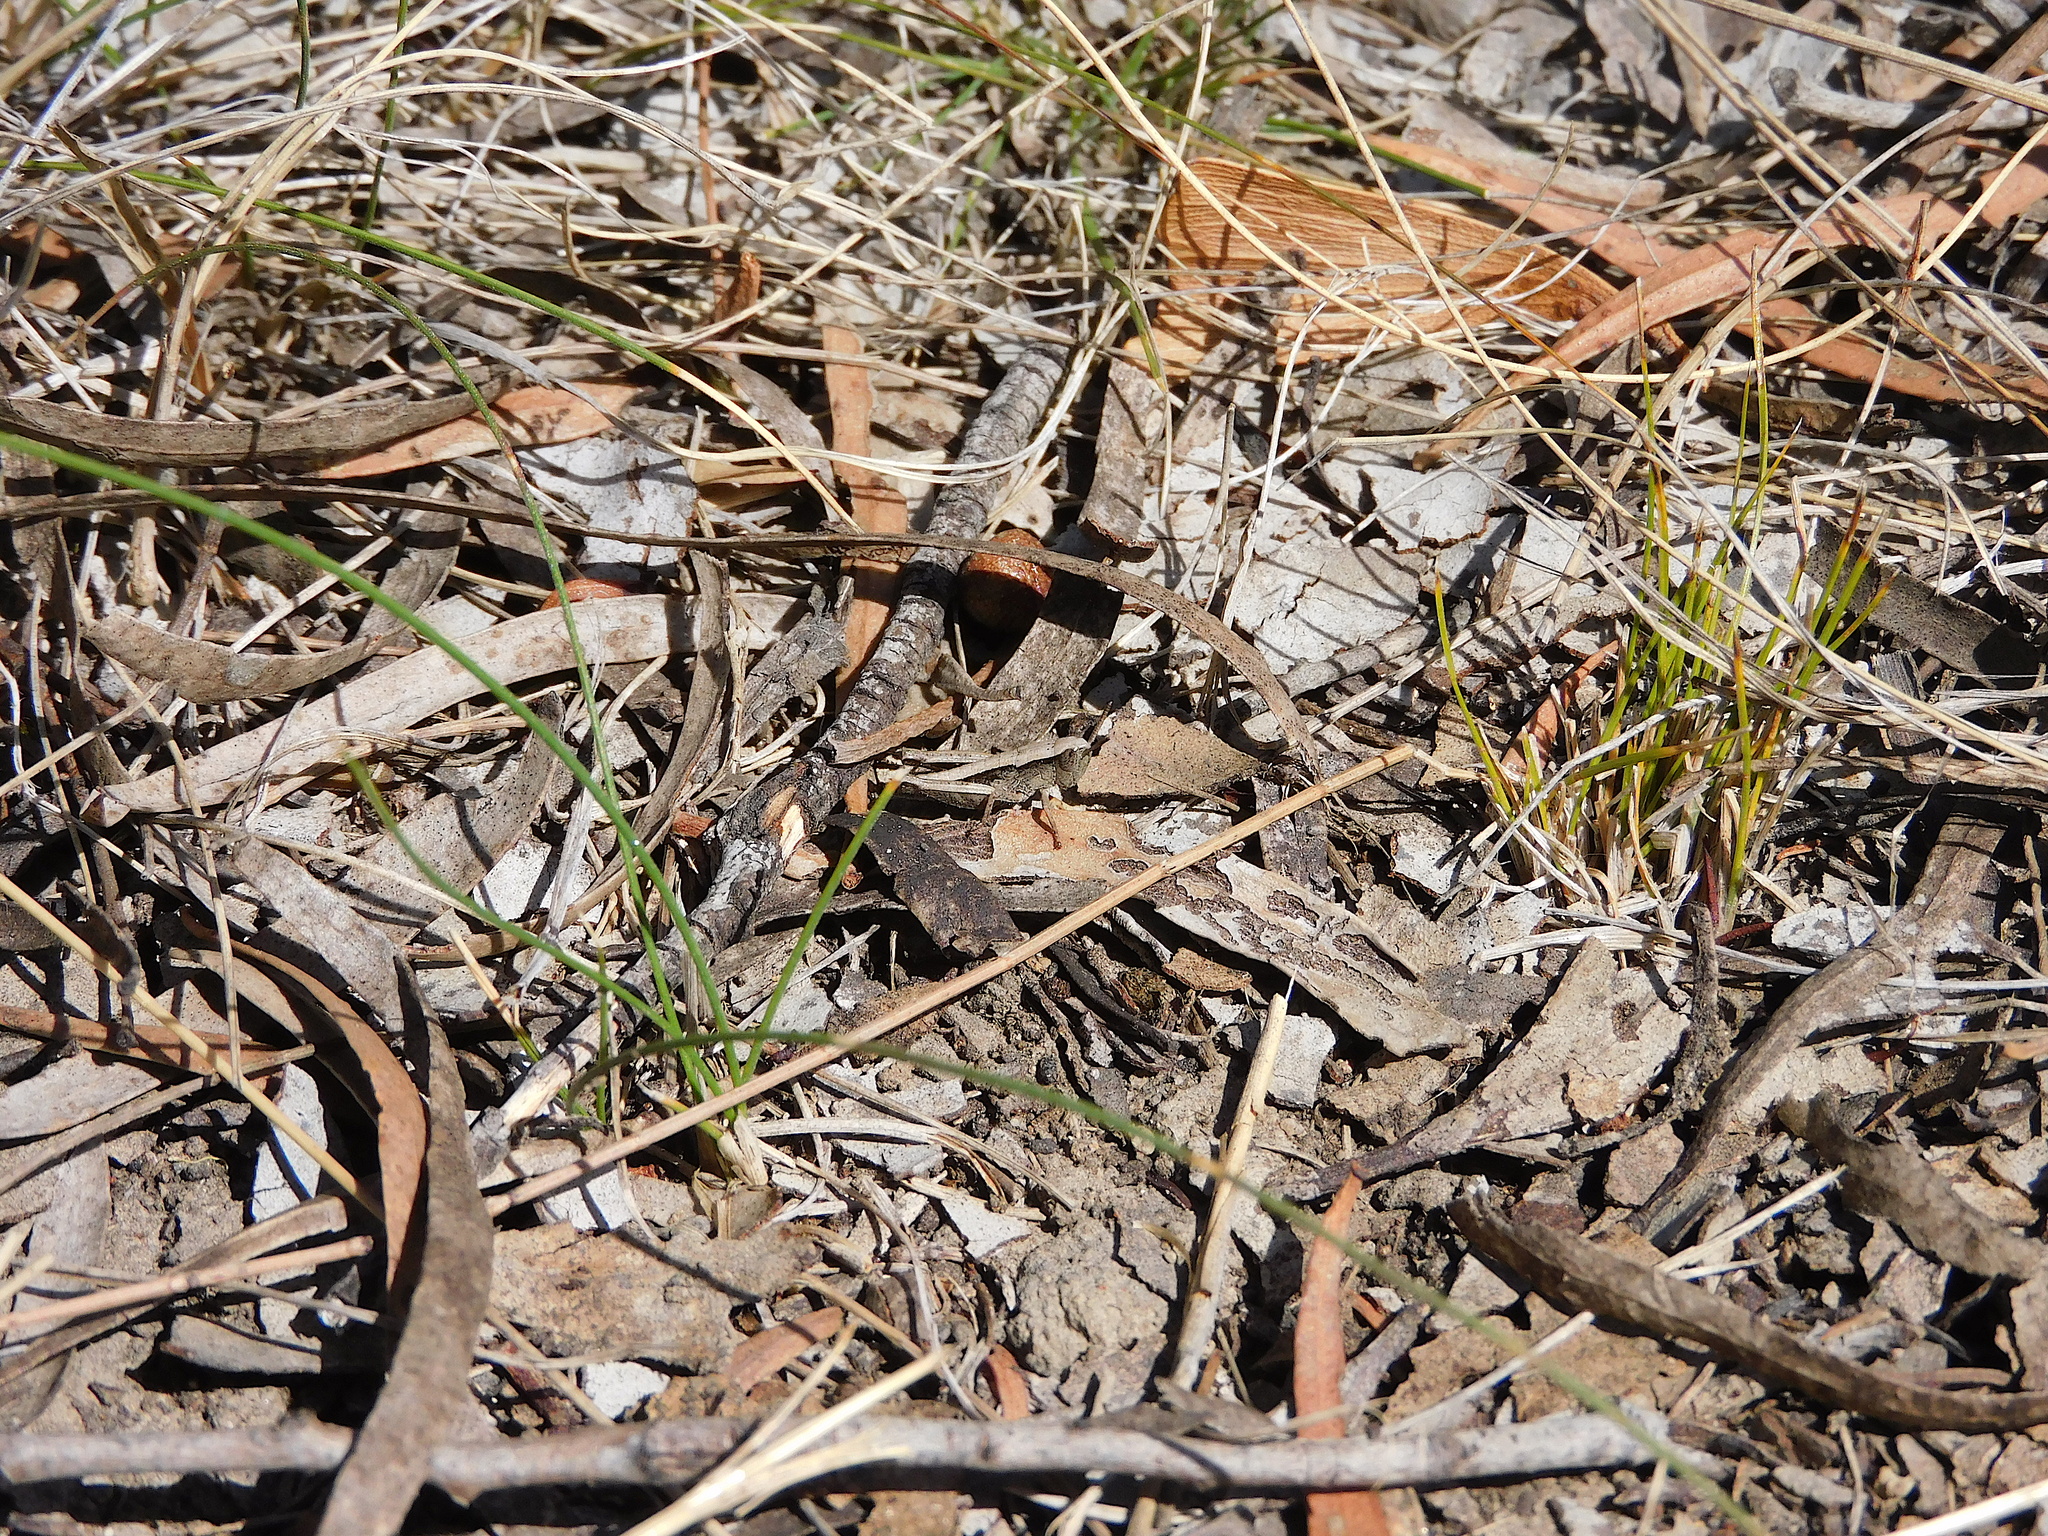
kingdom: Animalia
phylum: Arthropoda
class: Insecta
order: Orthoptera
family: Acrididae
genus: Cryptobothrus
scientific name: Cryptobothrus chrysophorus
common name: Golden bandwing
